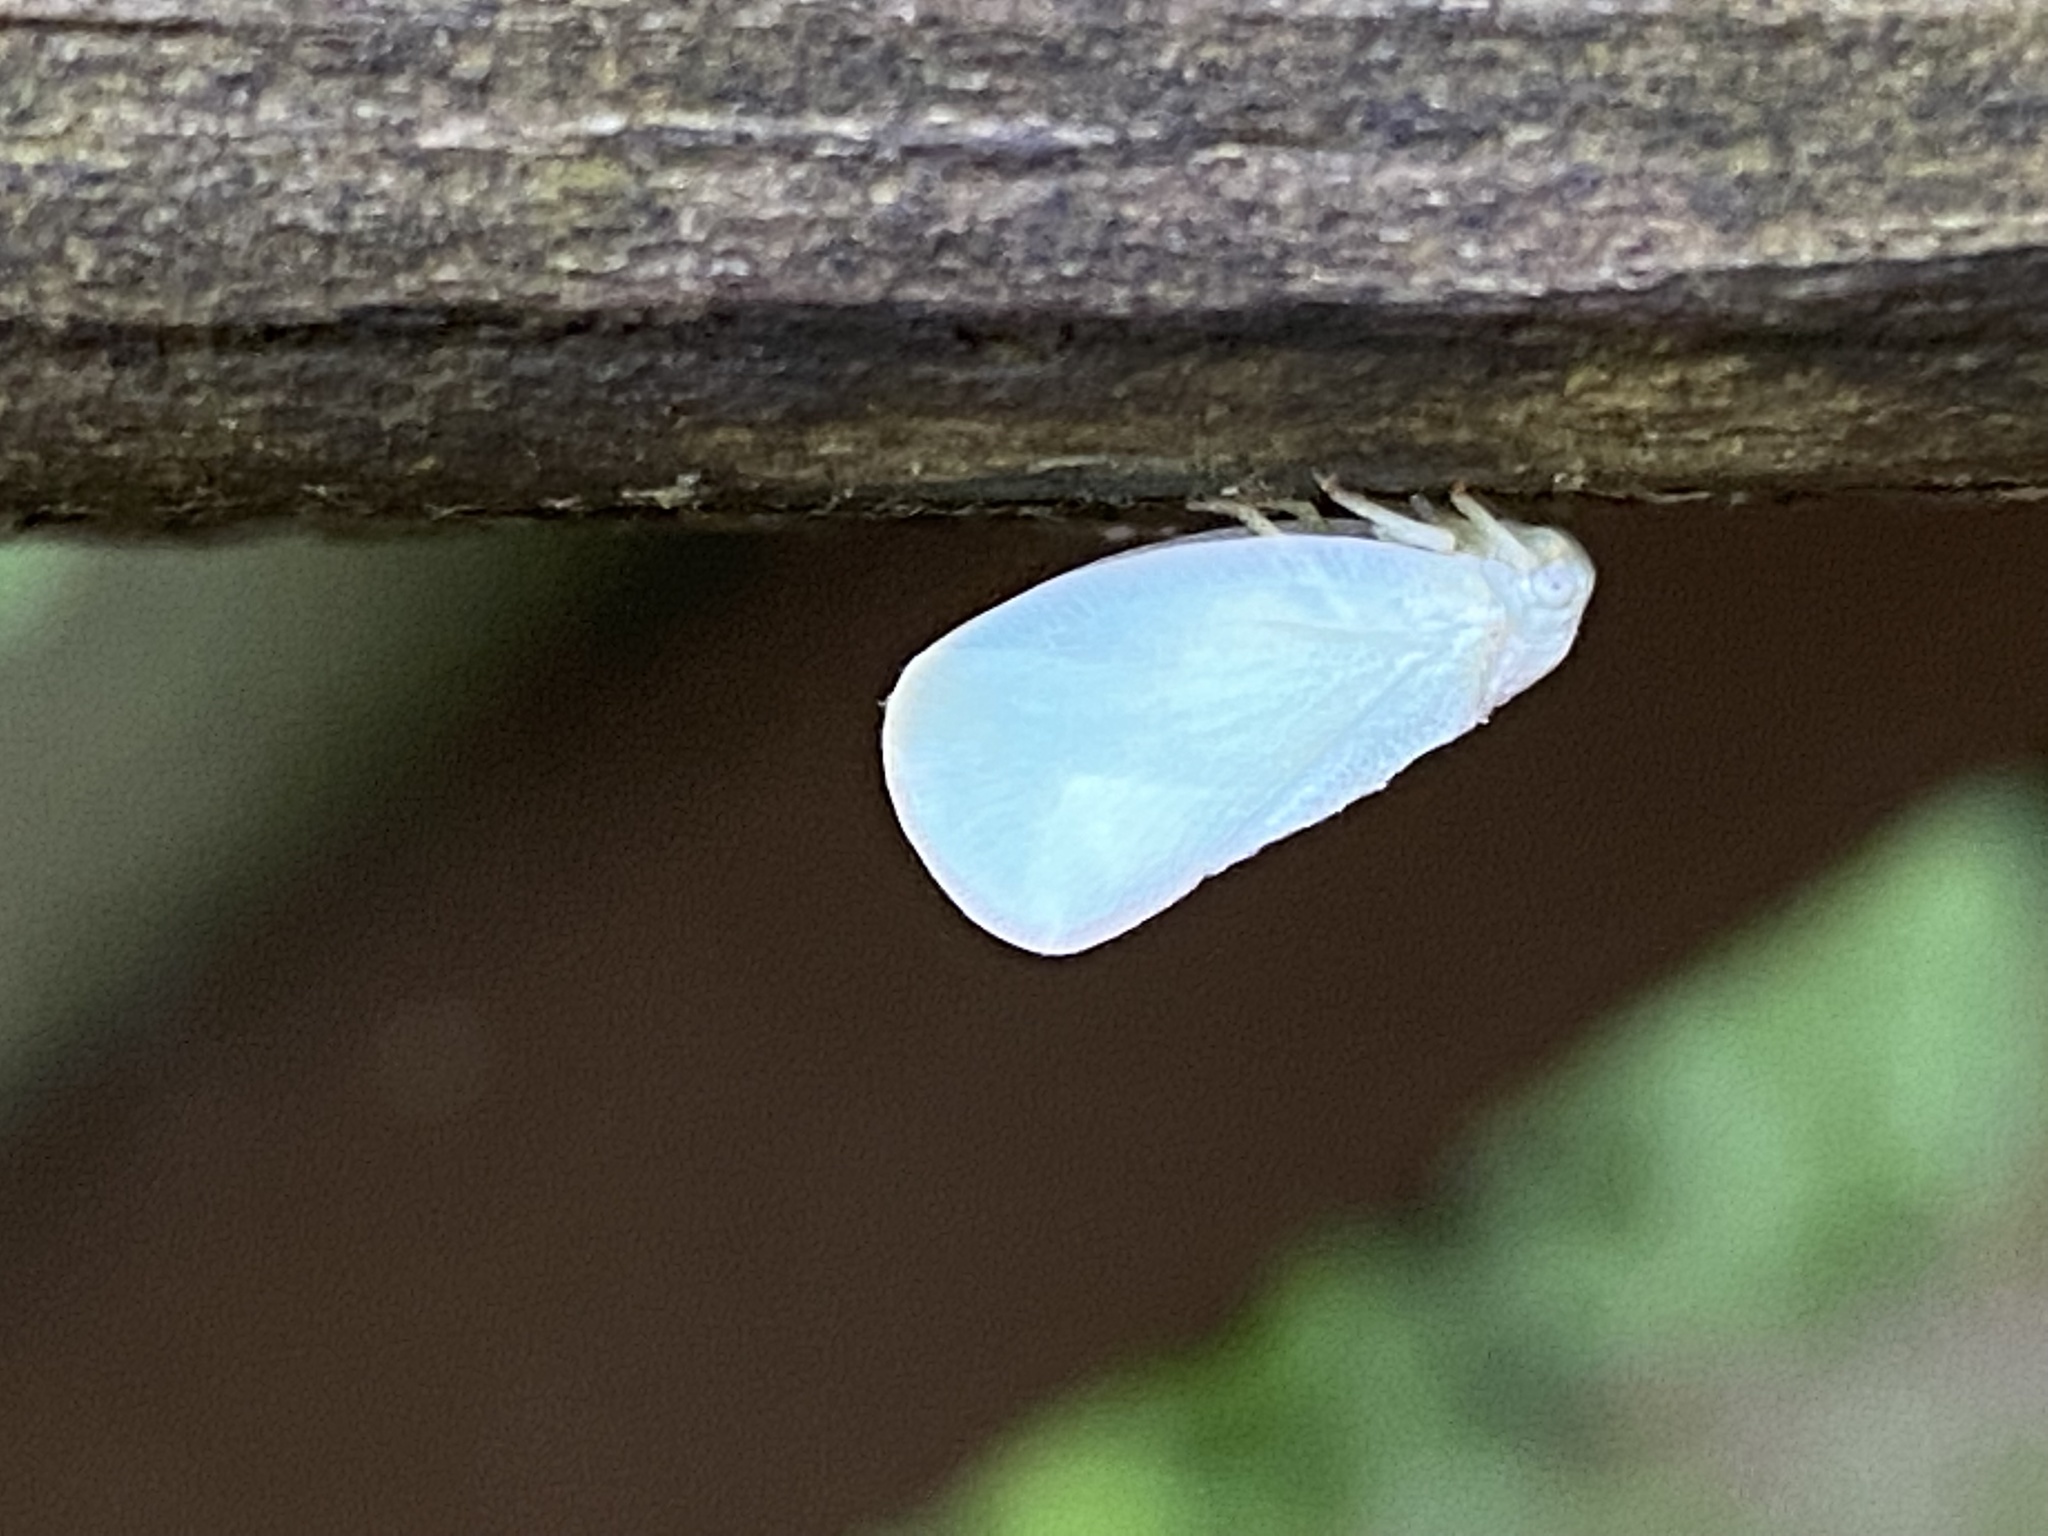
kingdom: Animalia
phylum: Arthropoda
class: Insecta
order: Hemiptera
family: Flatidae
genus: Ormenoides
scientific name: Ormenoides venusta
